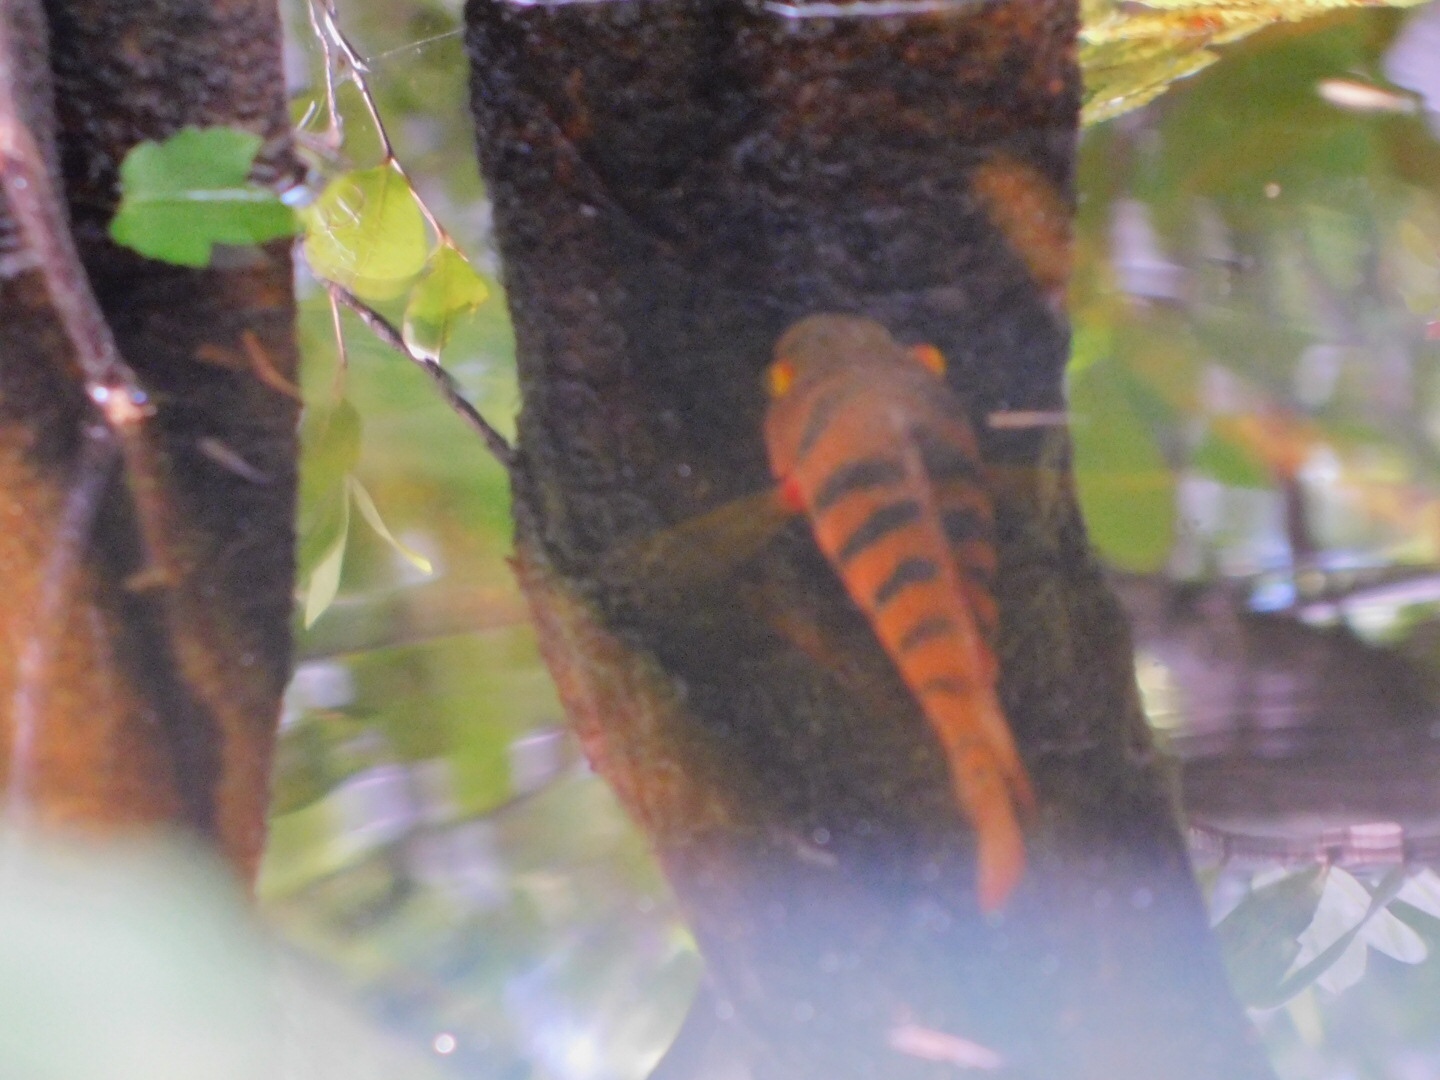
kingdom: Animalia
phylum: Chordata
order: Perciformes
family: Cichlidae
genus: Mayaheros
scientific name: Mayaheros urophthalmus
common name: Mayan cichlid
